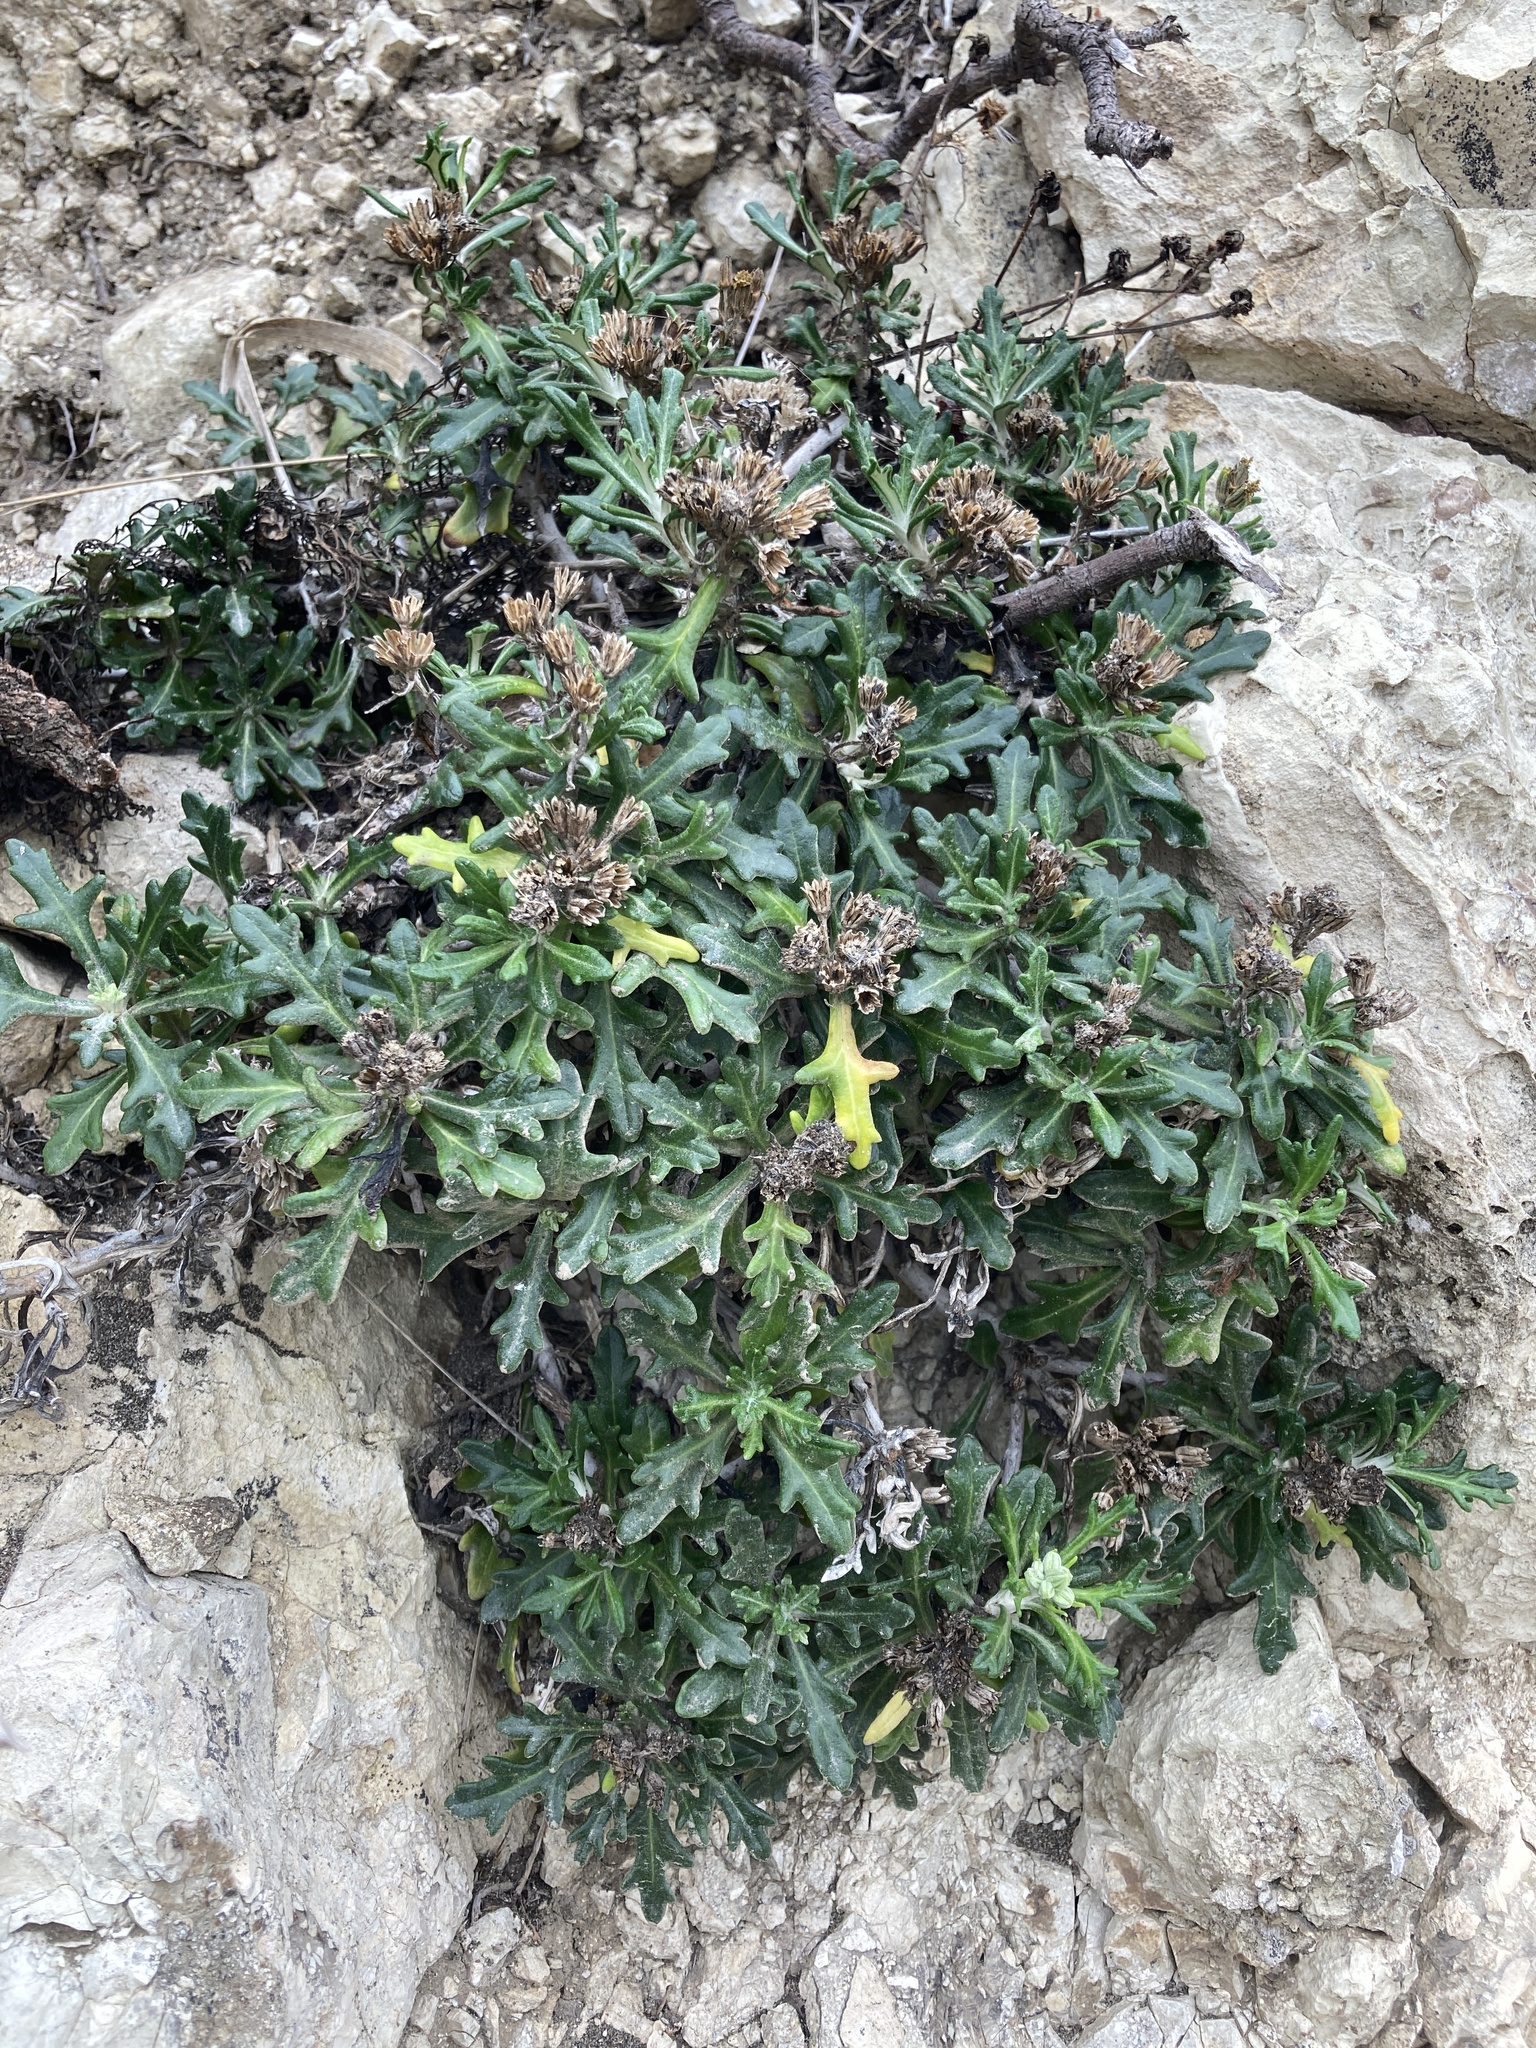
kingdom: Plantae
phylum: Tracheophyta
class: Magnoliopsida
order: Asterales
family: Asteraceae
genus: Eriophyllum
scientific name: Eriophyllum staechadifolium
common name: Lizardtail
